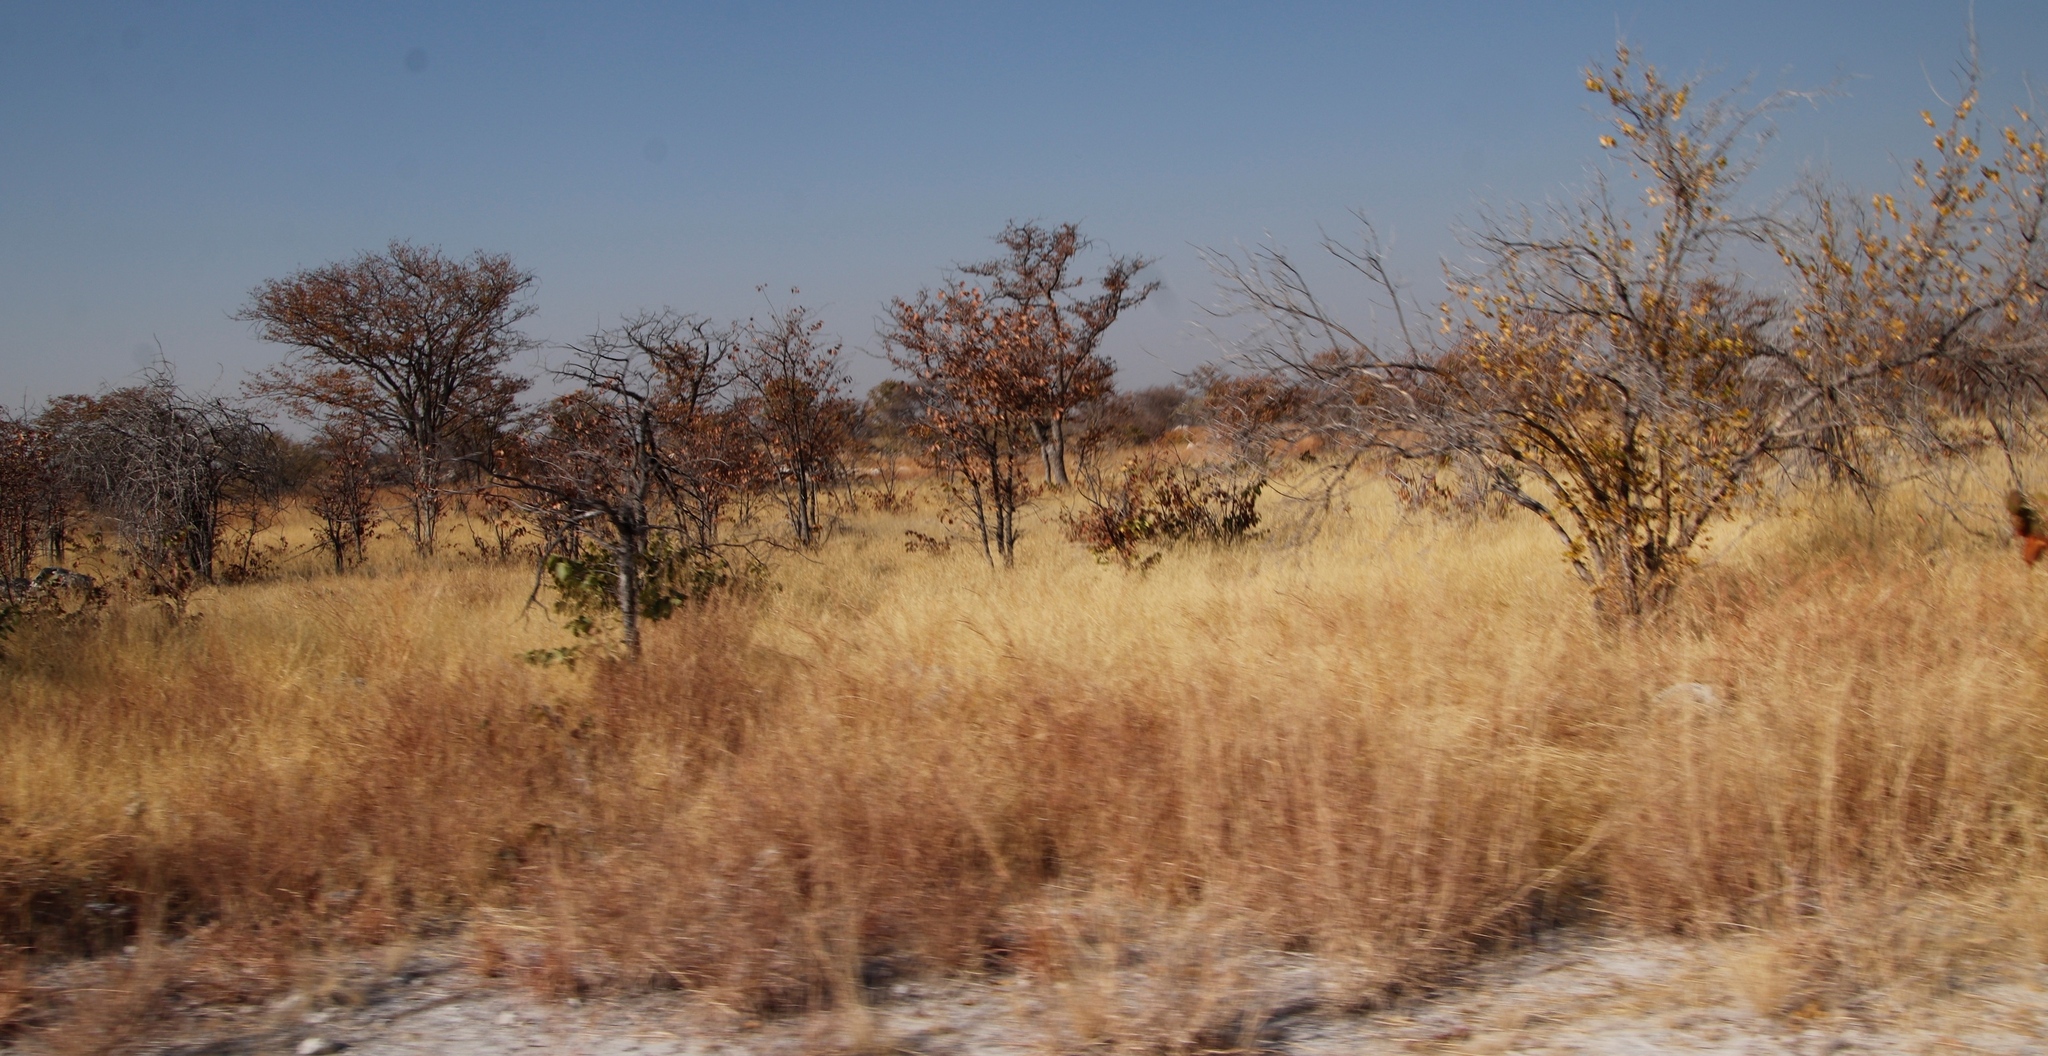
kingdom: Plantae
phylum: Tracheophyta
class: Magnoliopsida
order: Fabales
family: Fabaceae
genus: Colophospermum
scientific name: Colophospermum mopane
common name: Mopane
